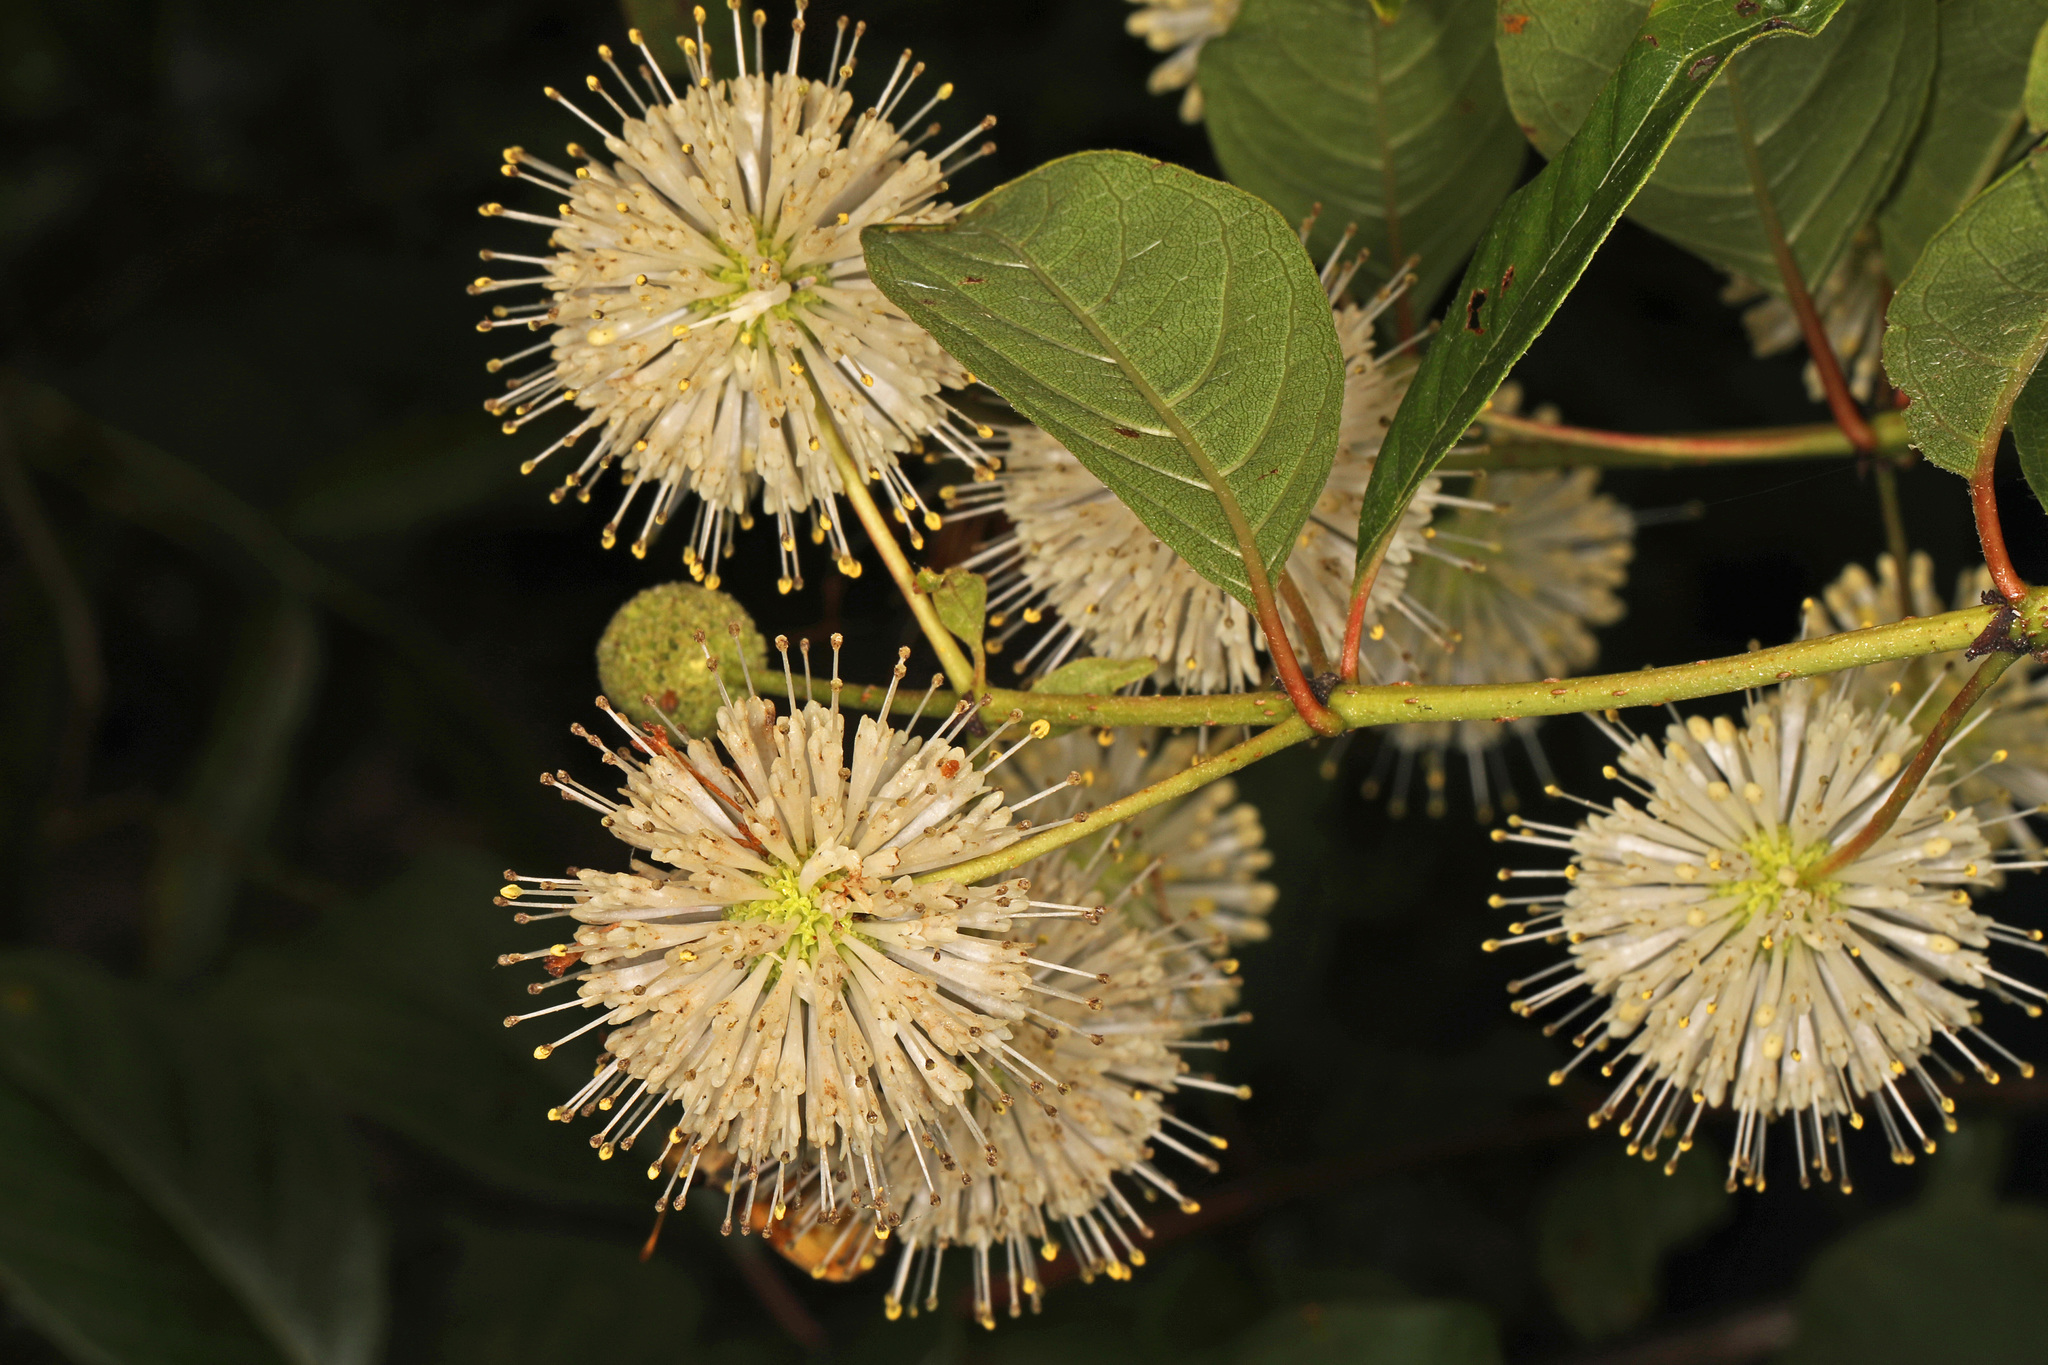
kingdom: Plantae
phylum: Tracheophyta
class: Magnoliopsida
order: Gentianales
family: Rubiaceae
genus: Cephalanthus
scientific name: Cephalanthus occidentalis
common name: Button-willow
